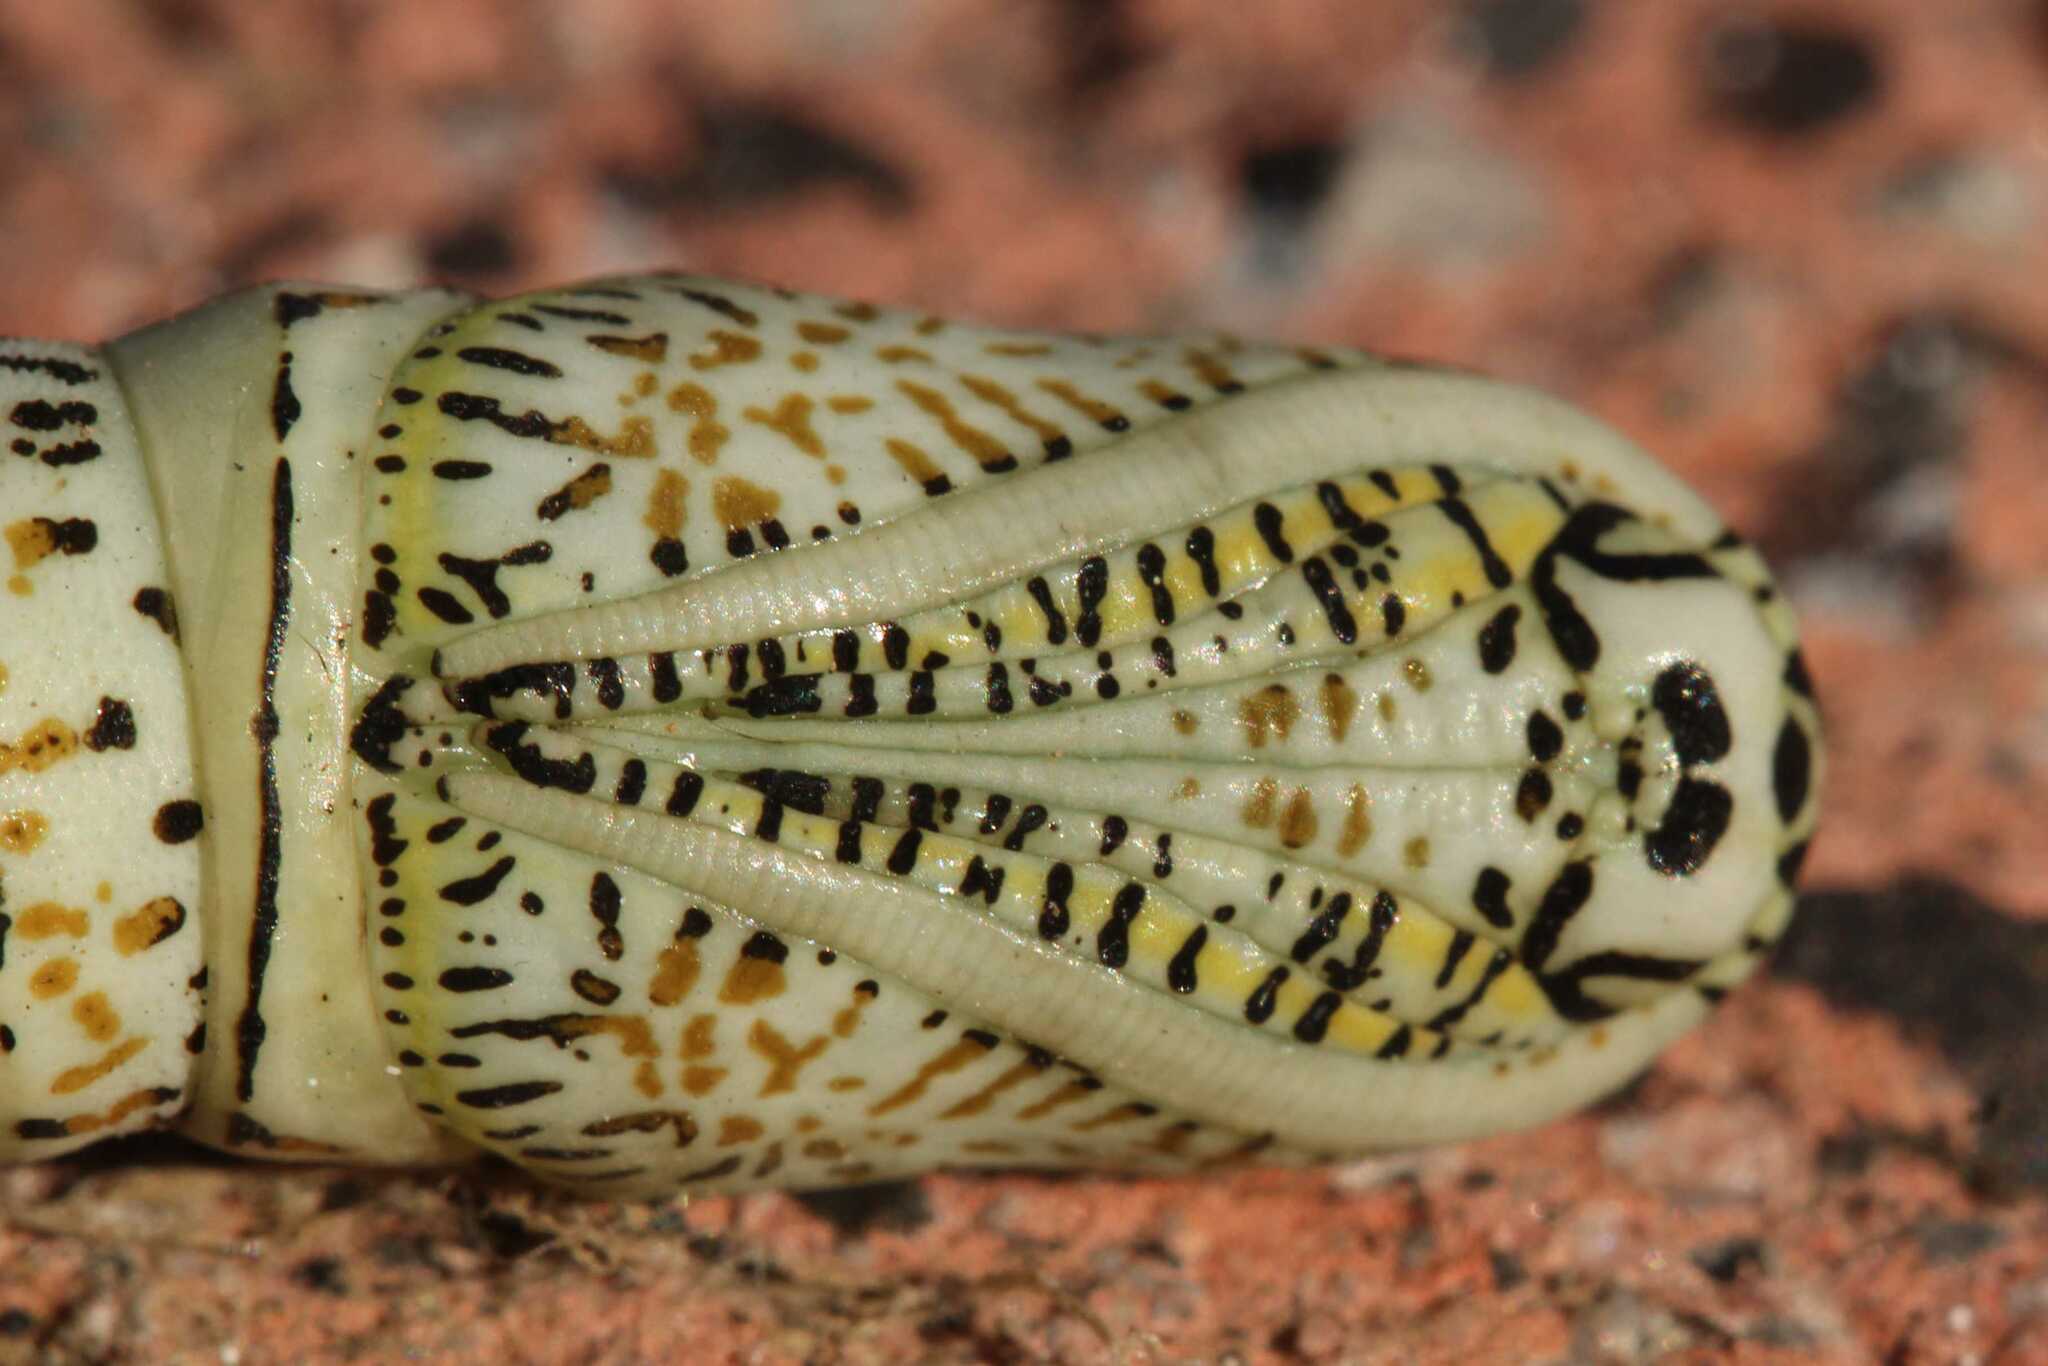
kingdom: Animalia
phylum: Arthropoda
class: Insecta
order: Lepidoptera
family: Geometridae
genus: Acronyctodes
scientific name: Acronyctodes mexicanaria
